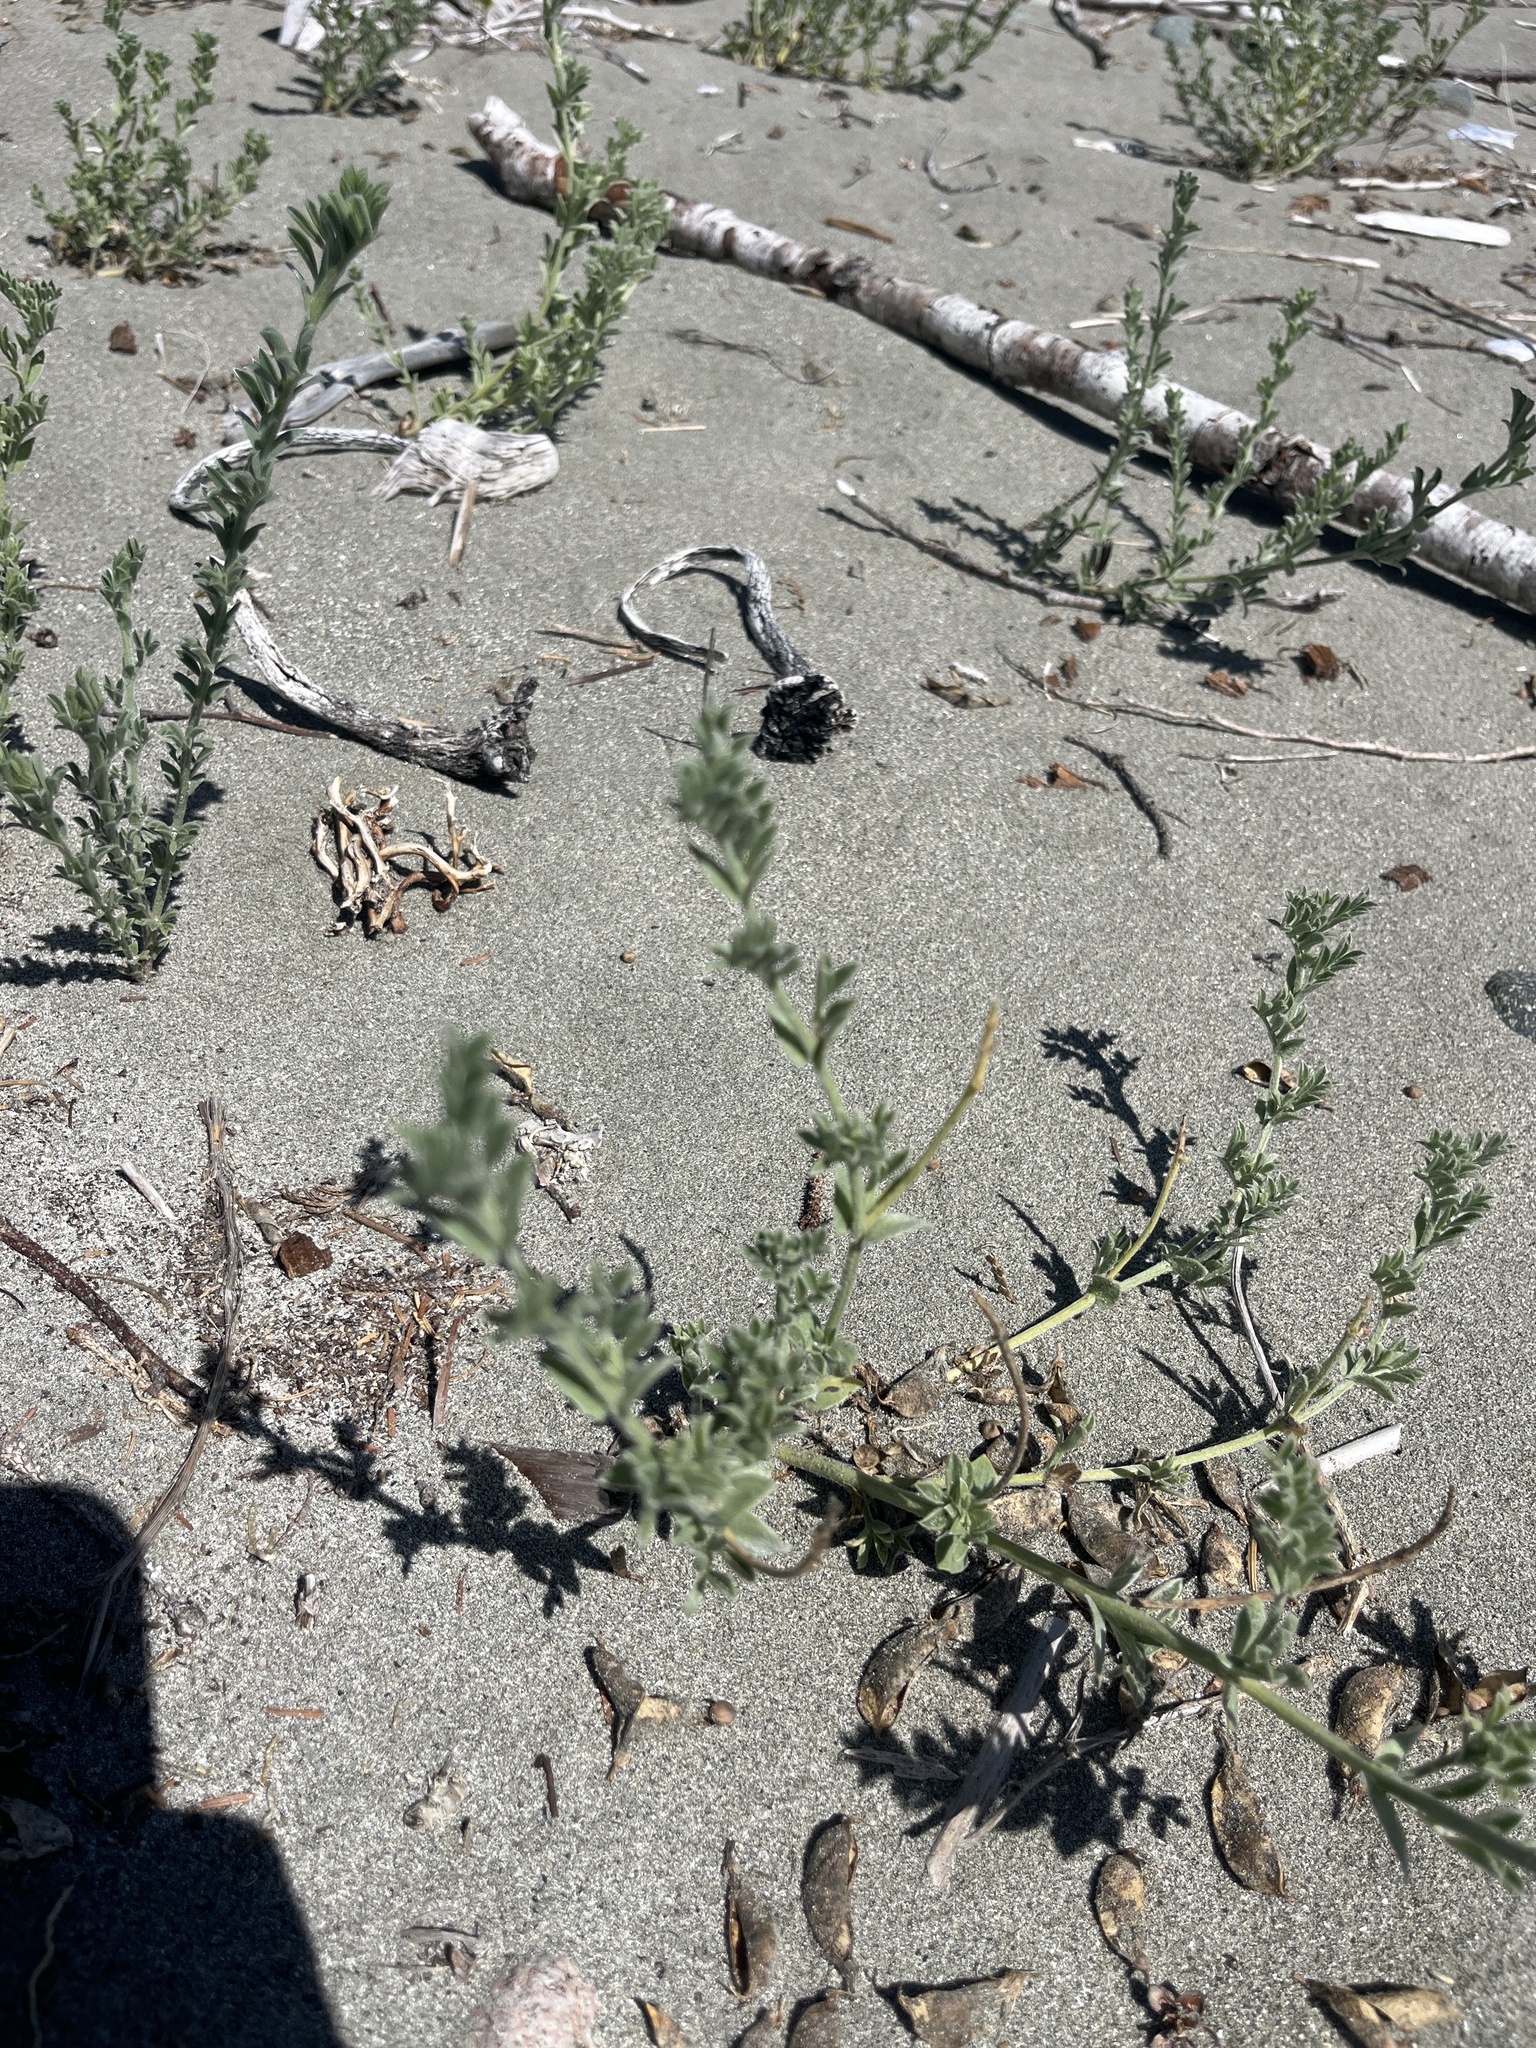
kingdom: Plantae
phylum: Tracheophyta
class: Magnoliopsida
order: Fabales
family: Fabaceae
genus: Lathyrus
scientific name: Lathyrus littoralis
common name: Dune sweet pea
